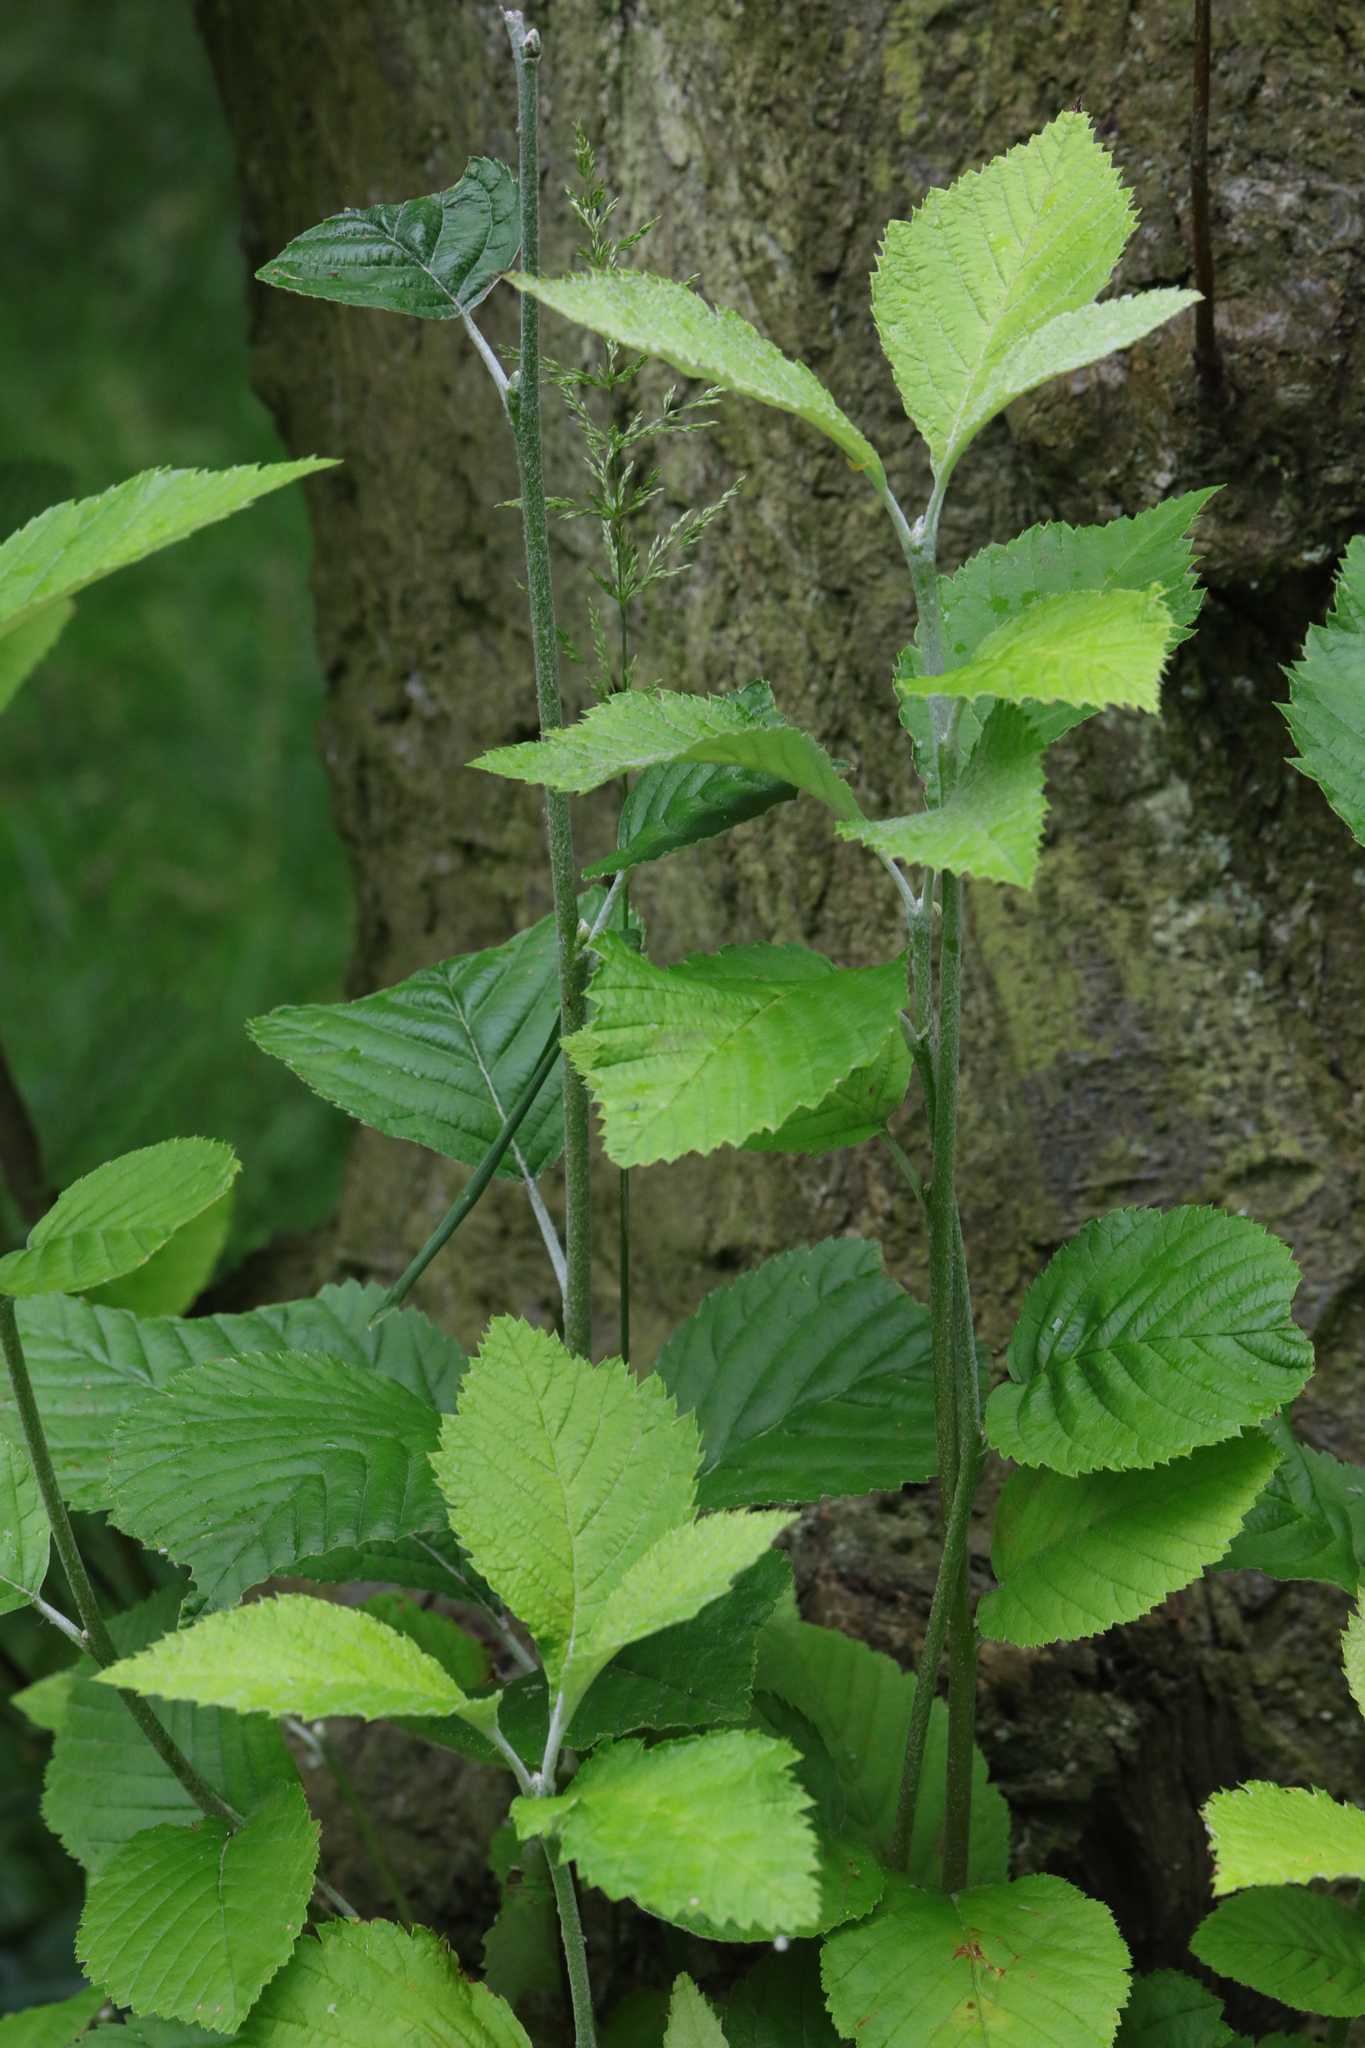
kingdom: Plantae
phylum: Tracheophyta
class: Magnoliopsida
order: Rosales
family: Rosaceae
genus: Aria
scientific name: Aria edulis
